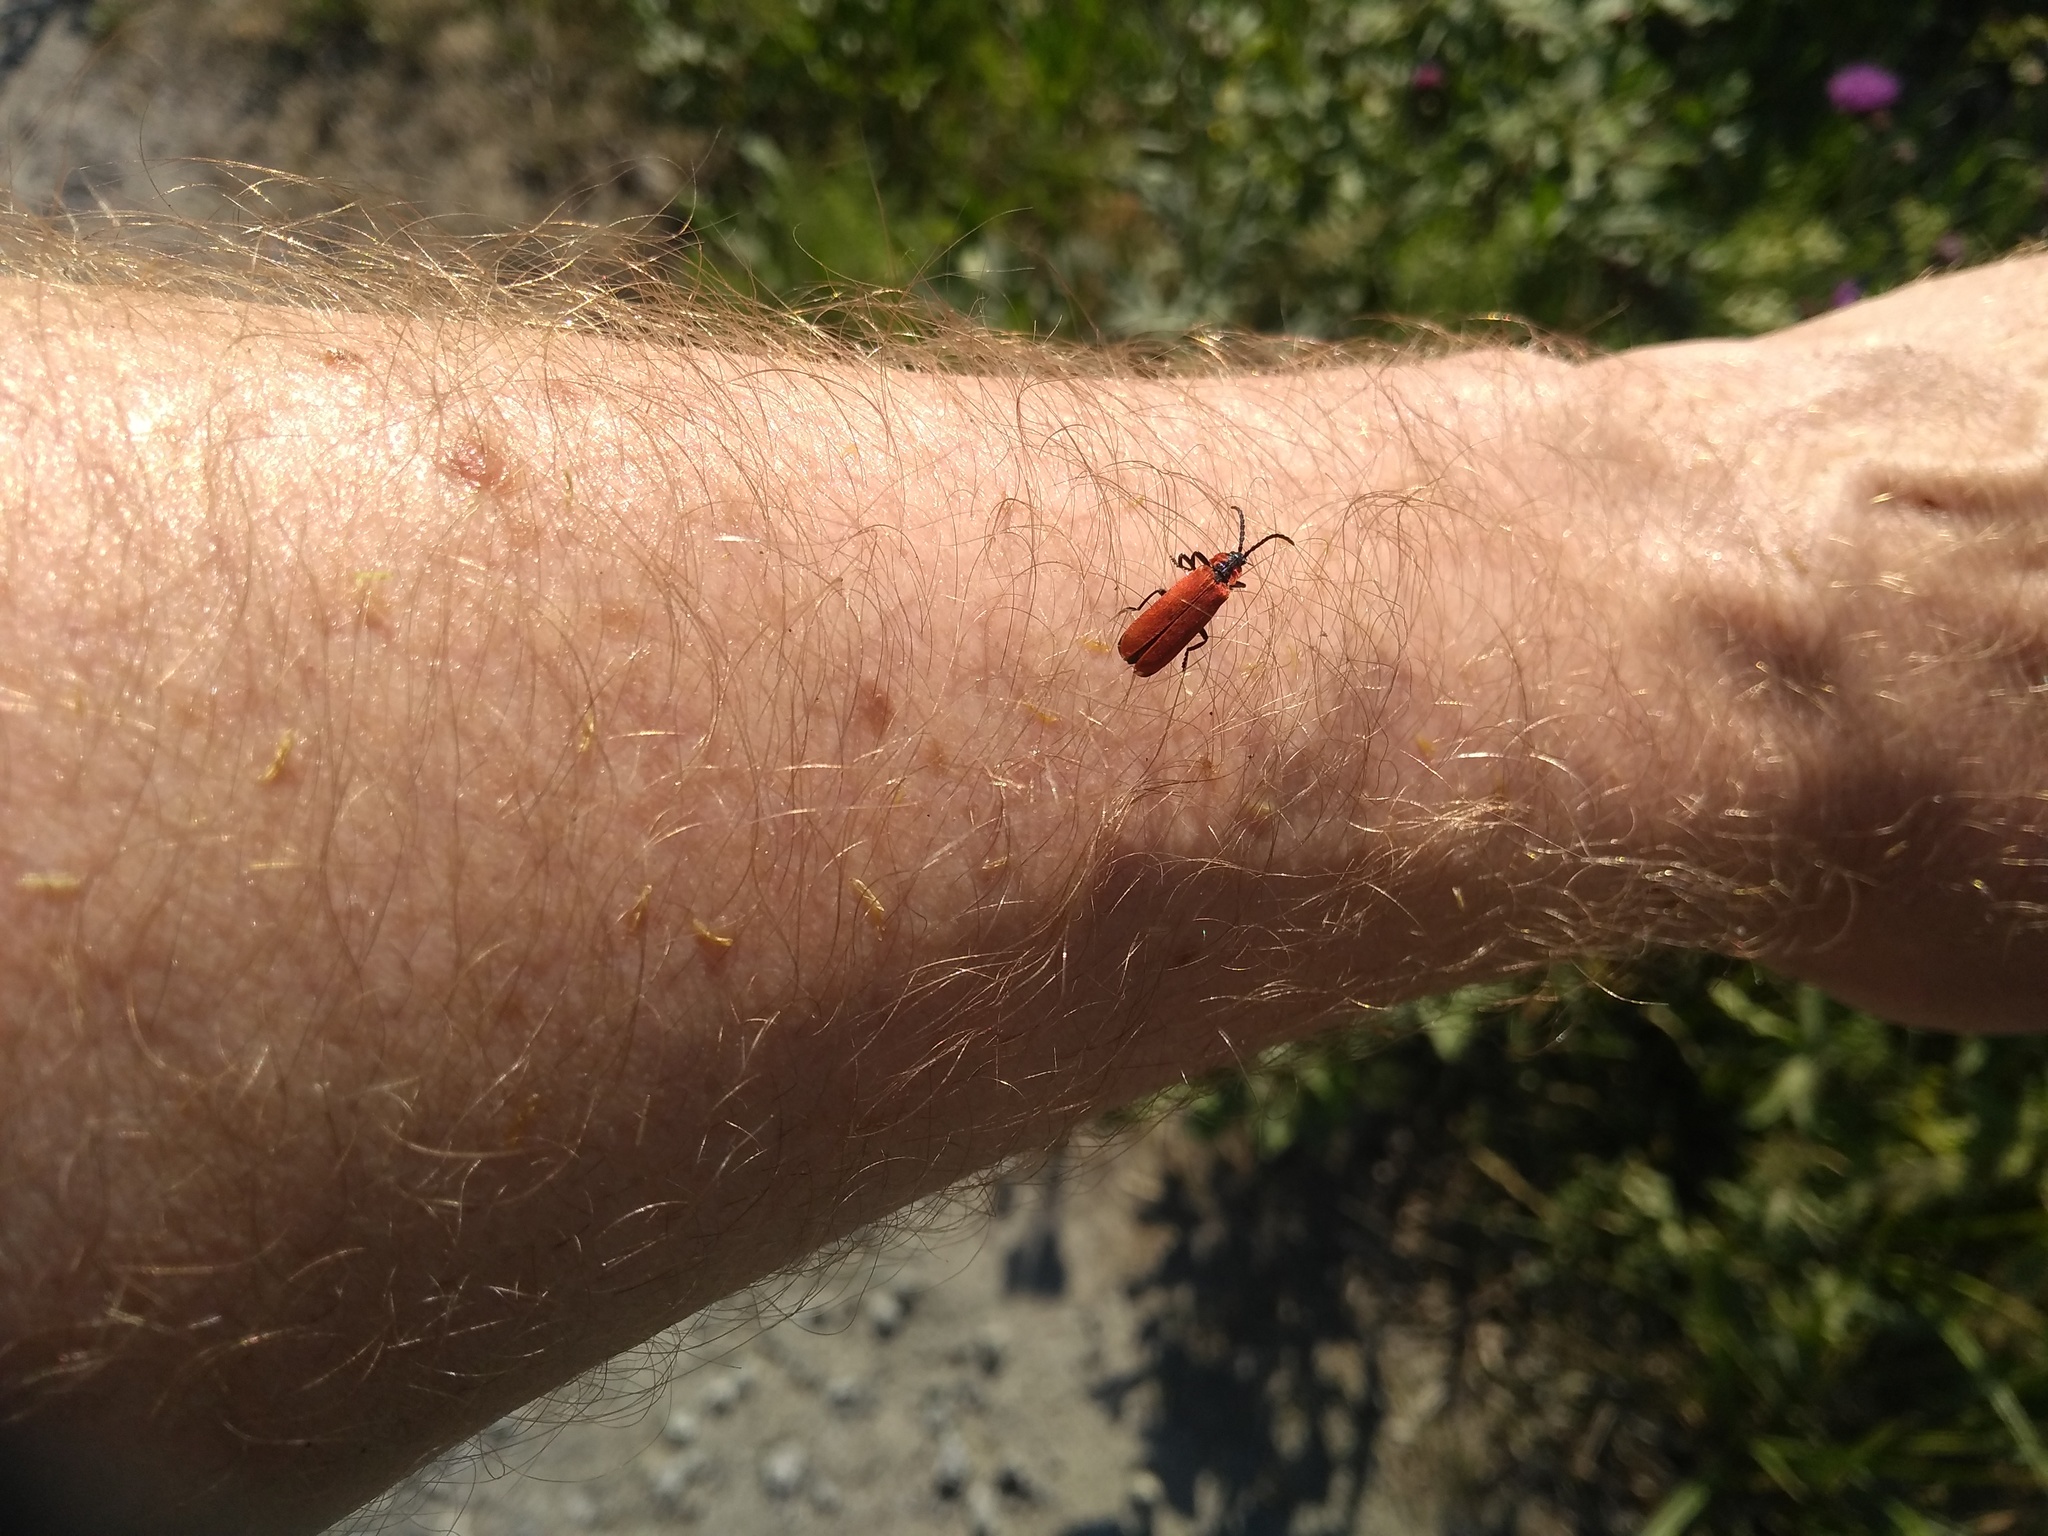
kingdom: Animalia
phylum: Arthropoda
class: Insecta
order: Coleoptera
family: Lycidae
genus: Lygistopterus
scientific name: Lygistopterus sanguineus
